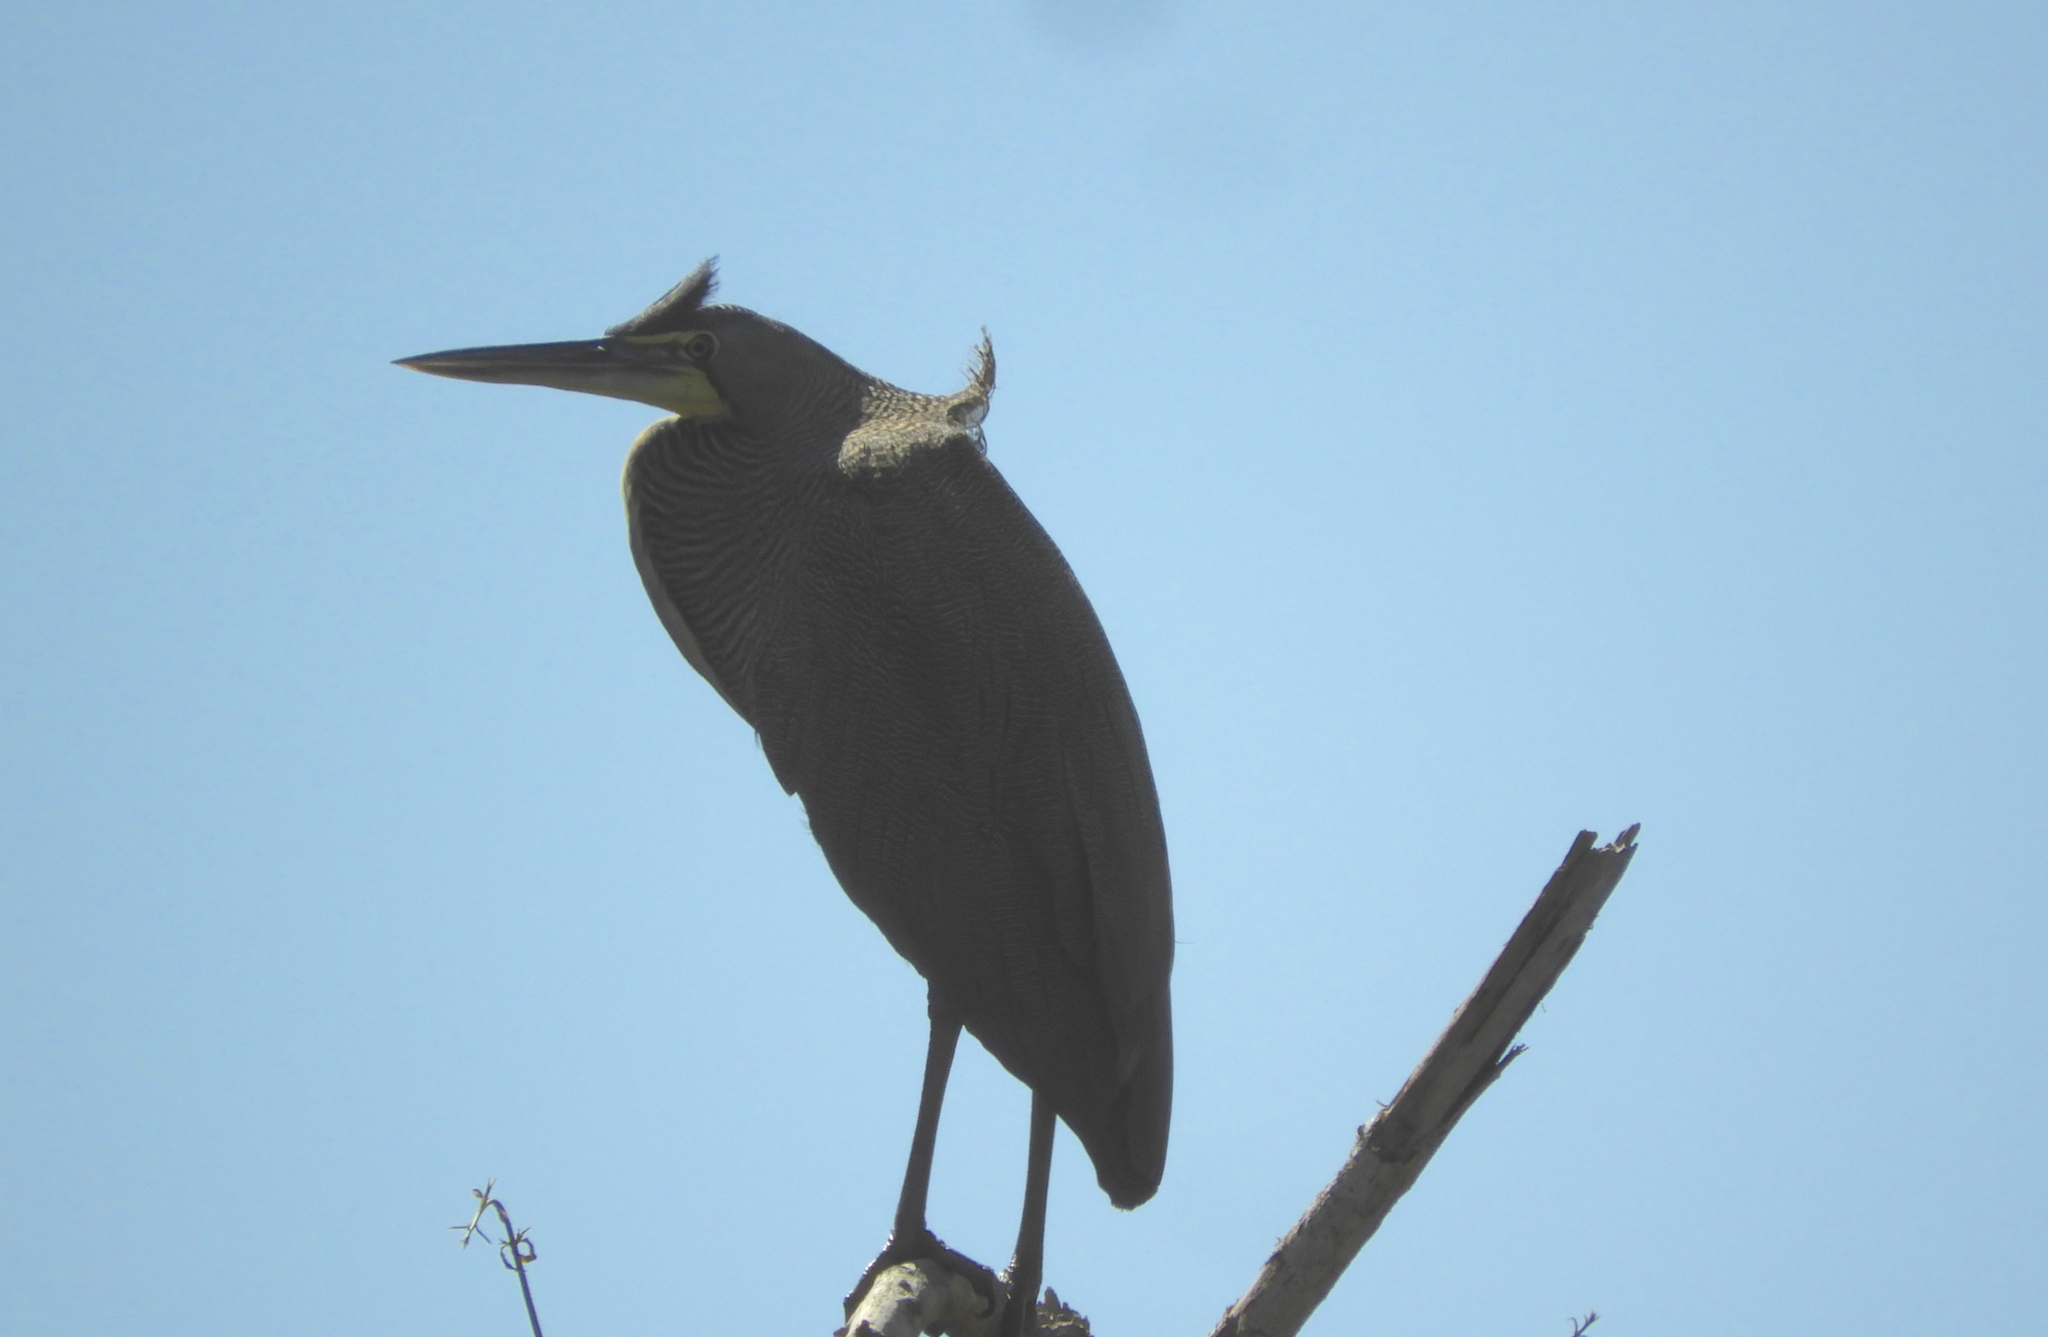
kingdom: Animalia
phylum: Chordata
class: Aves
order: Pelecaniformes
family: Ardeidae
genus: Tigrisoma
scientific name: Tigrisoma mexicanum
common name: Bare-throated tiger-heron
